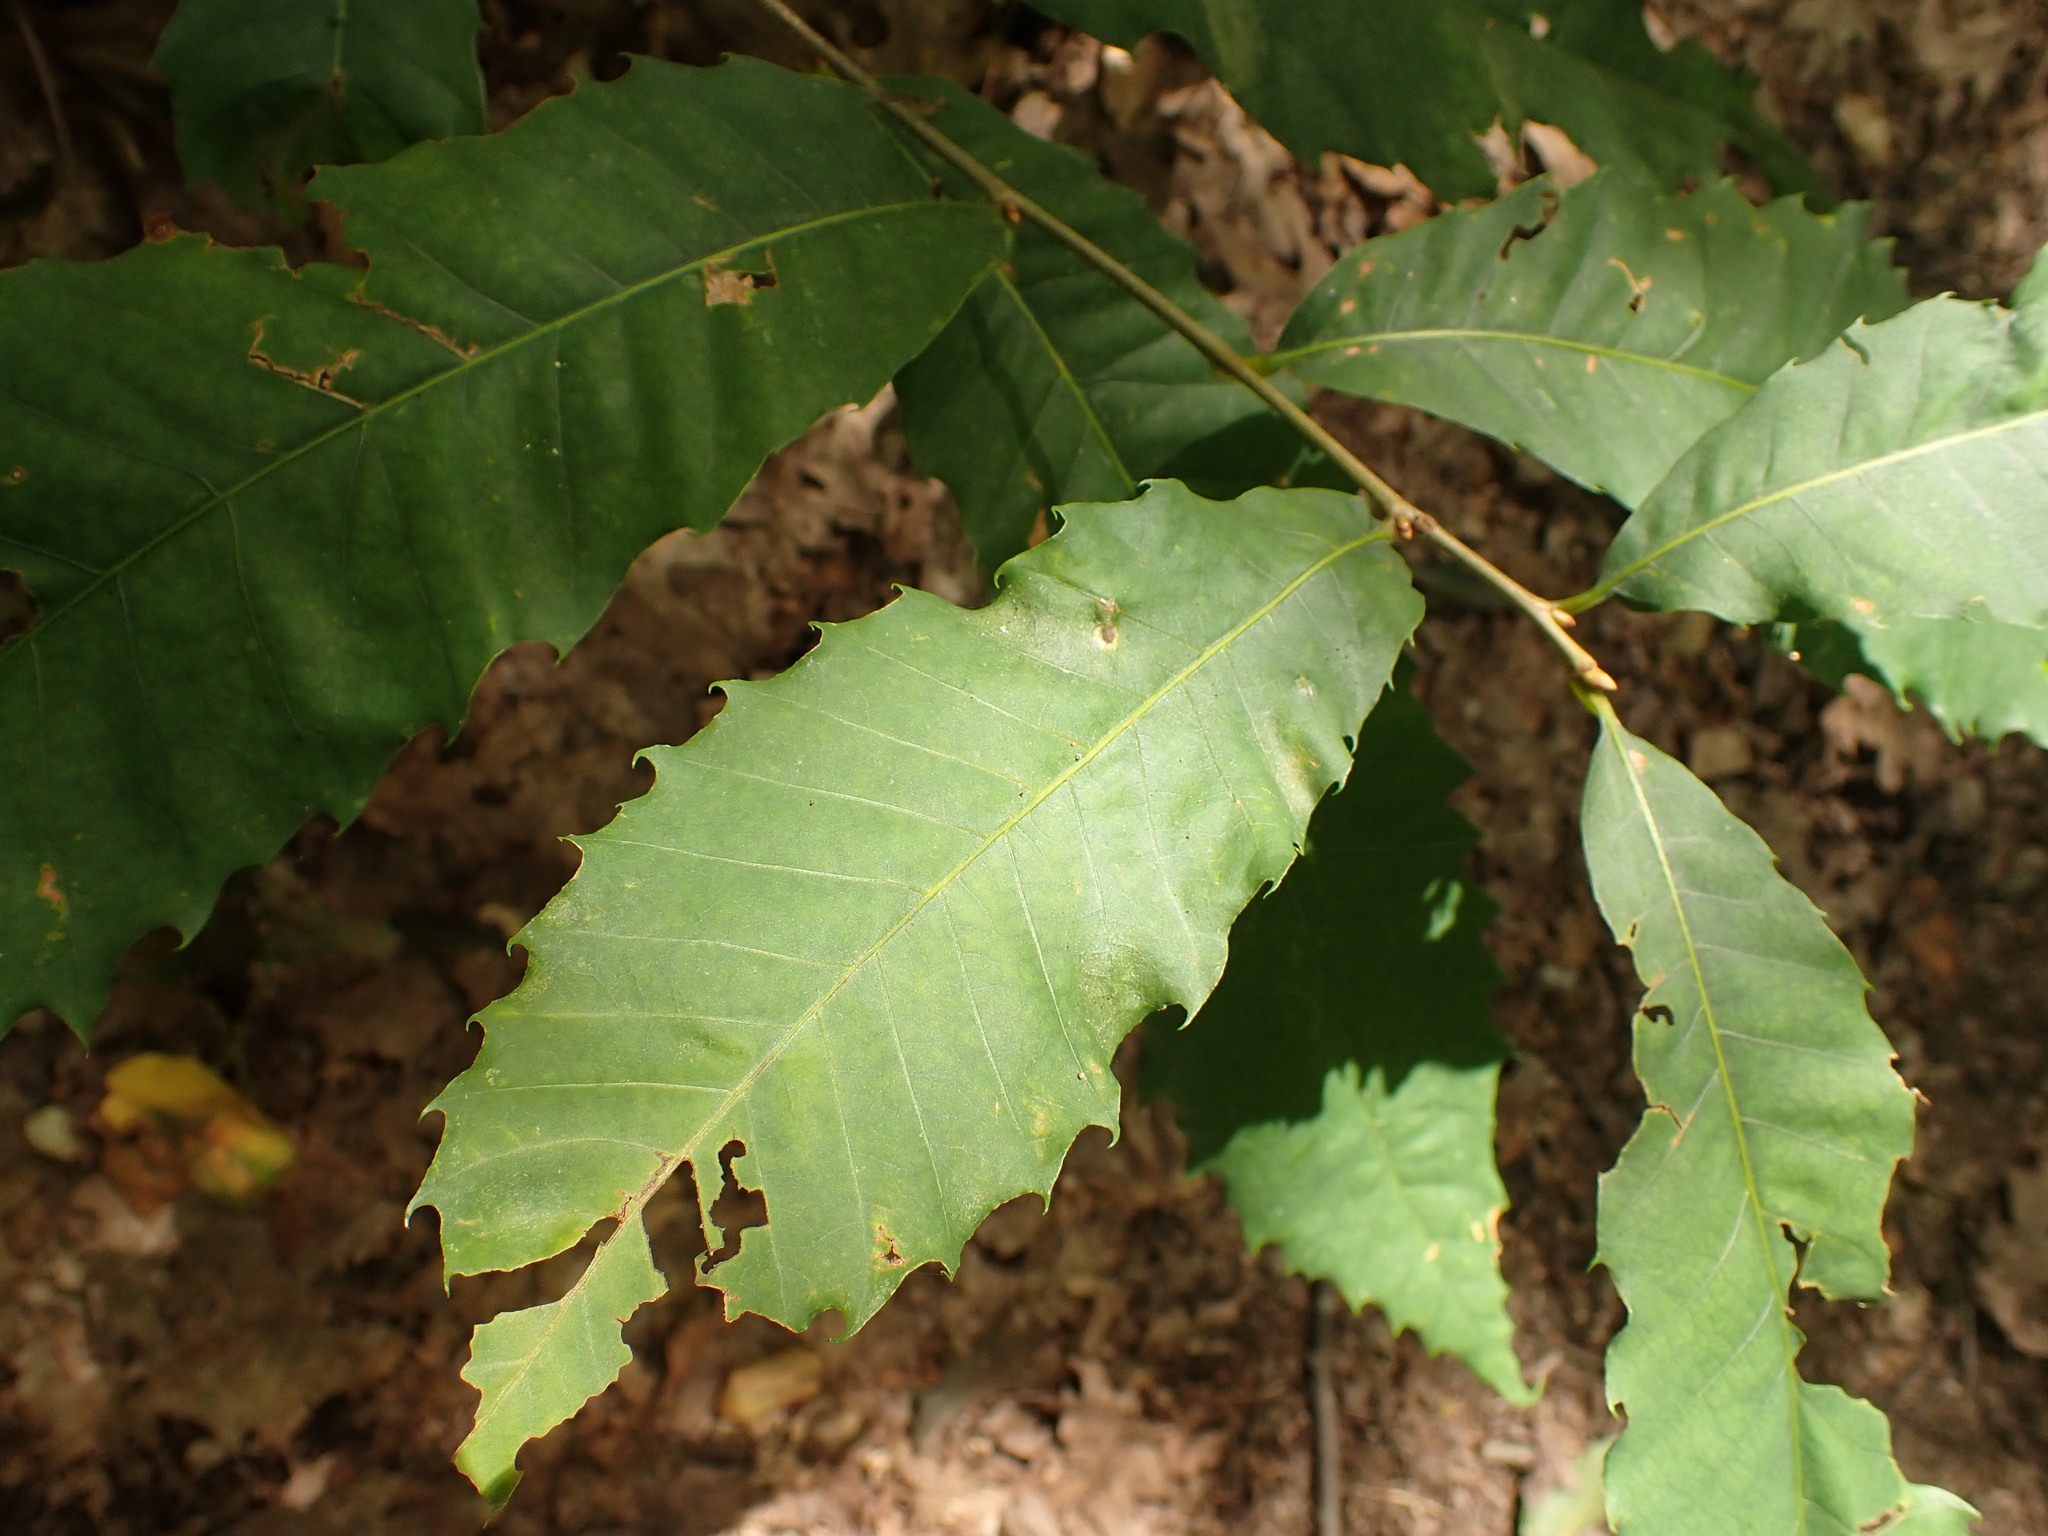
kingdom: Plantae
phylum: Tracheophyta
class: Magnoliopsida
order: Fagales
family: Fagaceae
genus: Castanea
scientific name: Castanea dentata
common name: American chestnut
